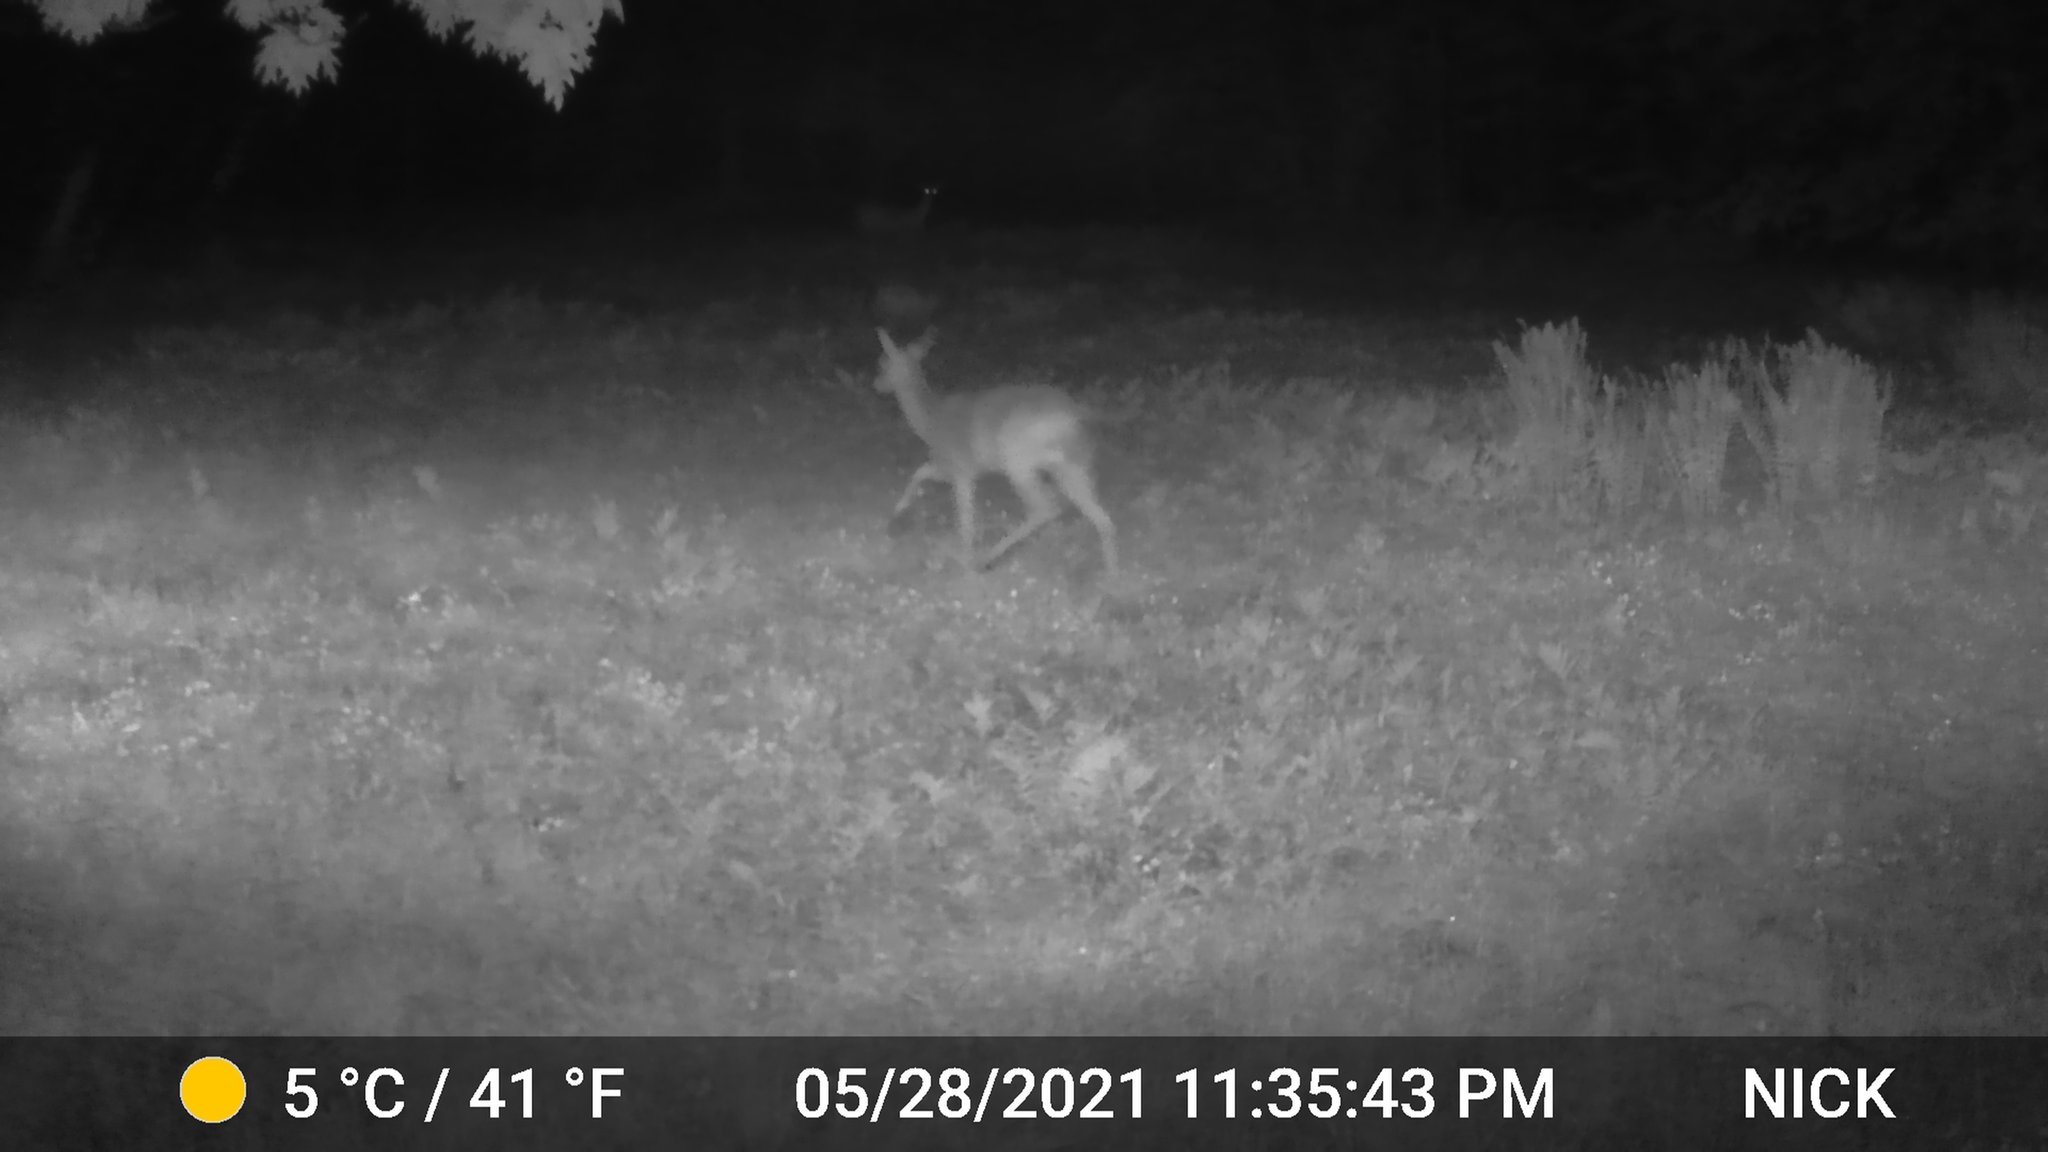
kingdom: Animalia
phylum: Chordata
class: Mammalia
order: Artiodactyla
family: Cervidae
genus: Odocoileus
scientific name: Odocoileus virginianus
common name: White-tailed deer
